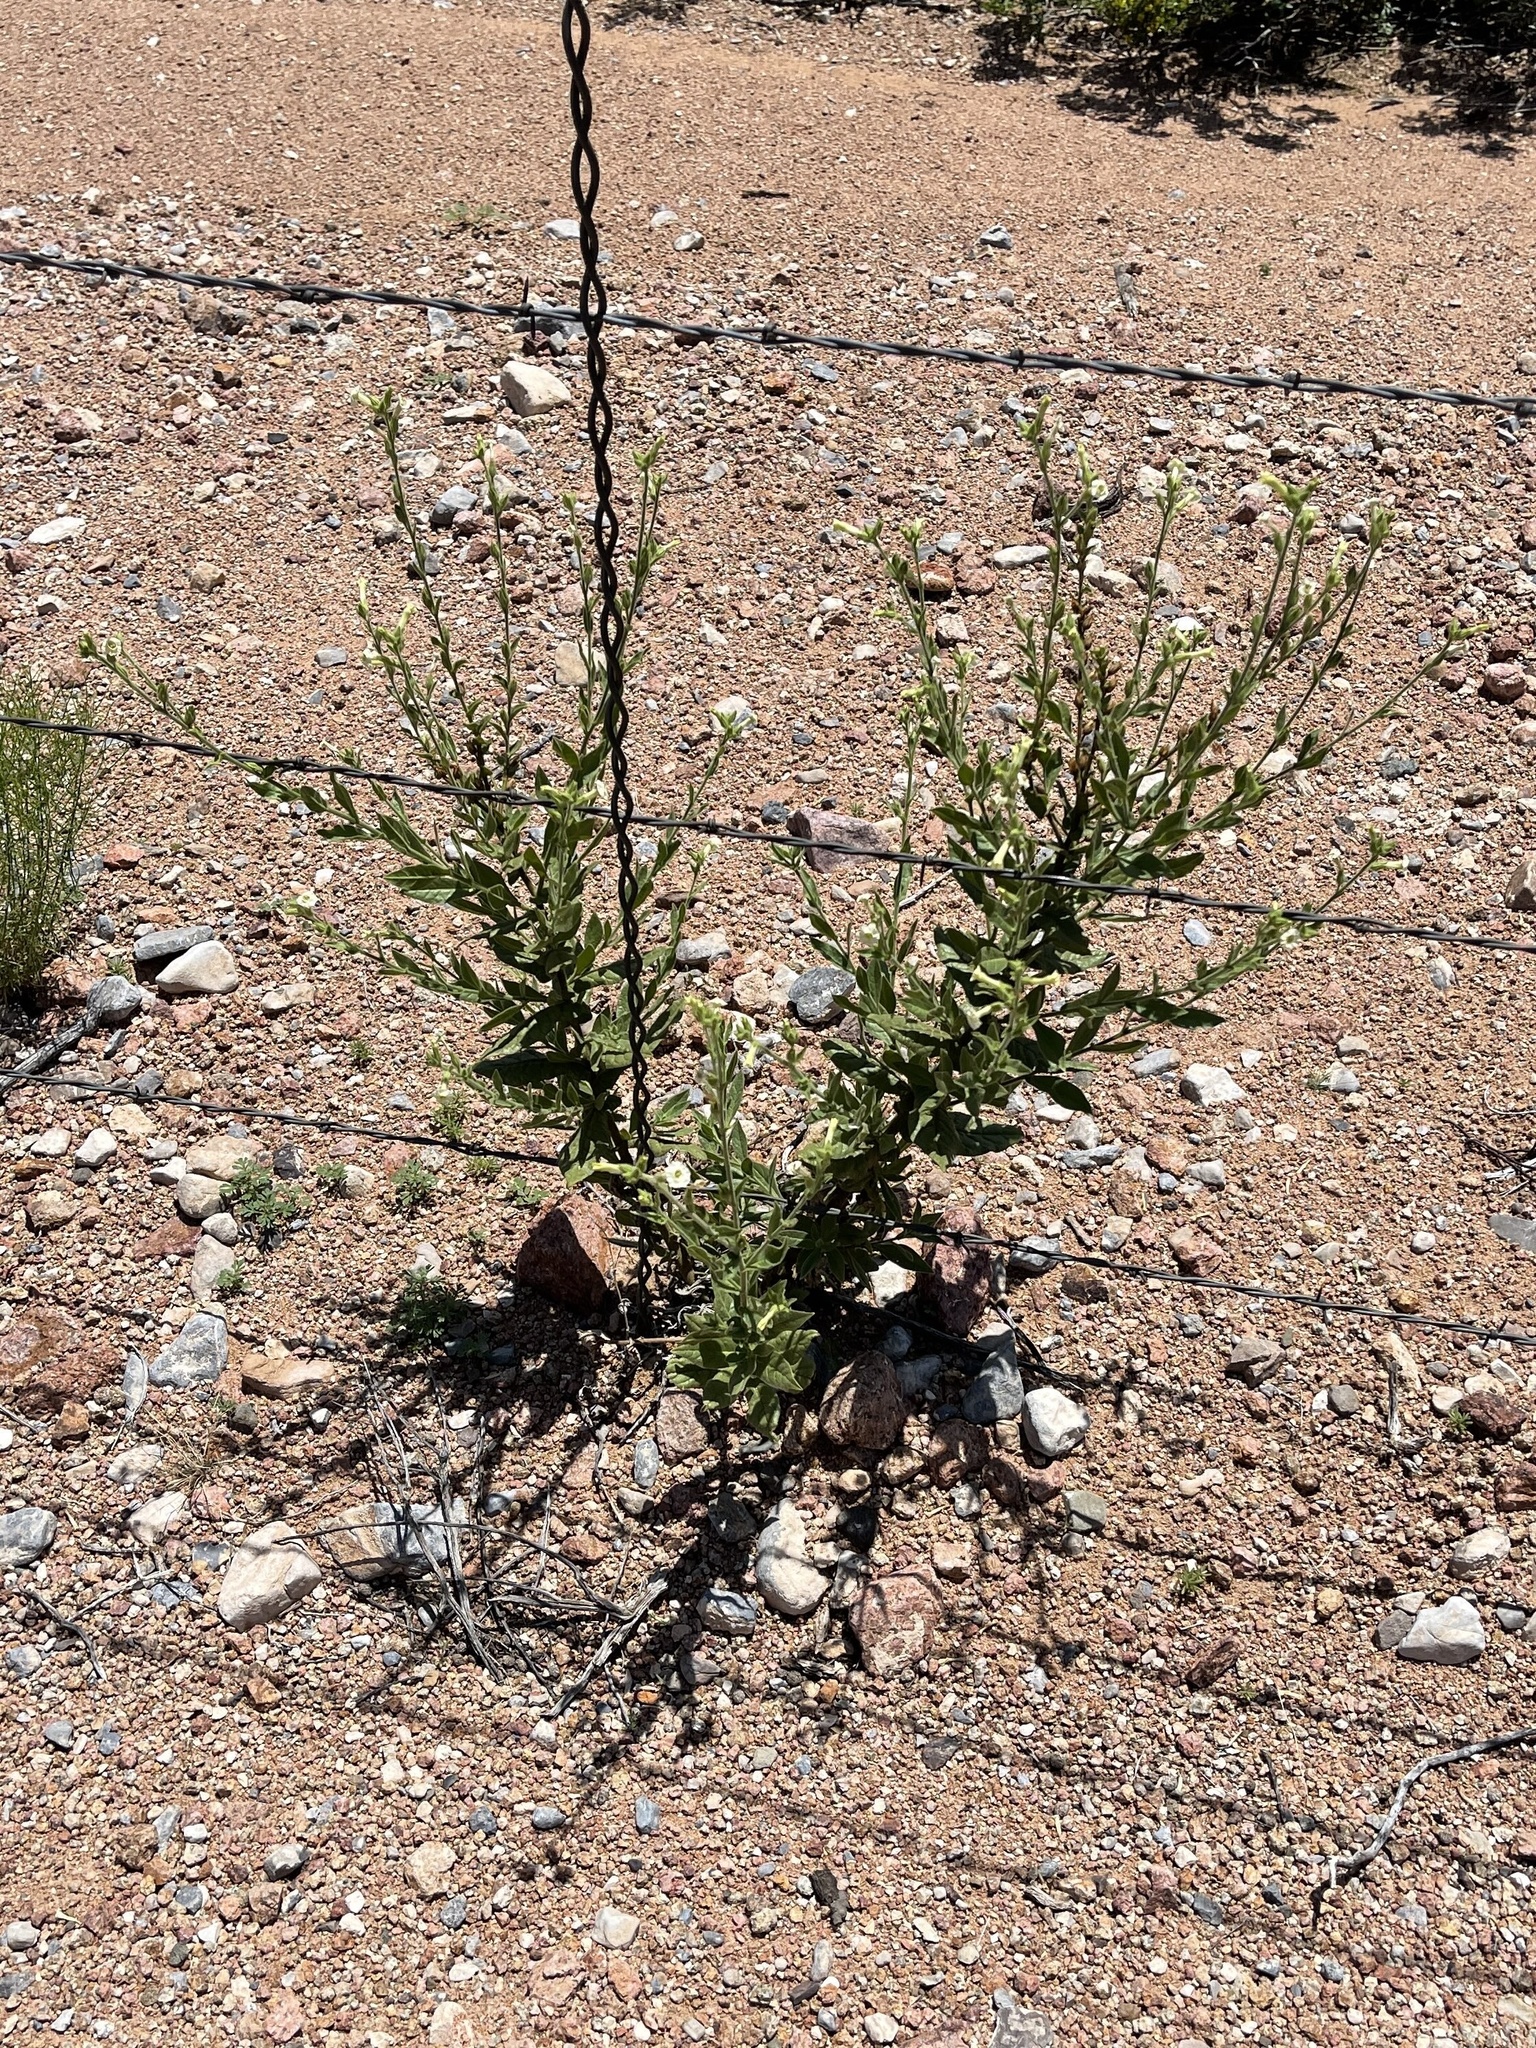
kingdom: Plantae
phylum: Tracheophyta
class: Magnoliopsida
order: Solanales
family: Solanaceae
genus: Nicotiana
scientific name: Nicotiana obtusifolia
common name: Desert tobacco
